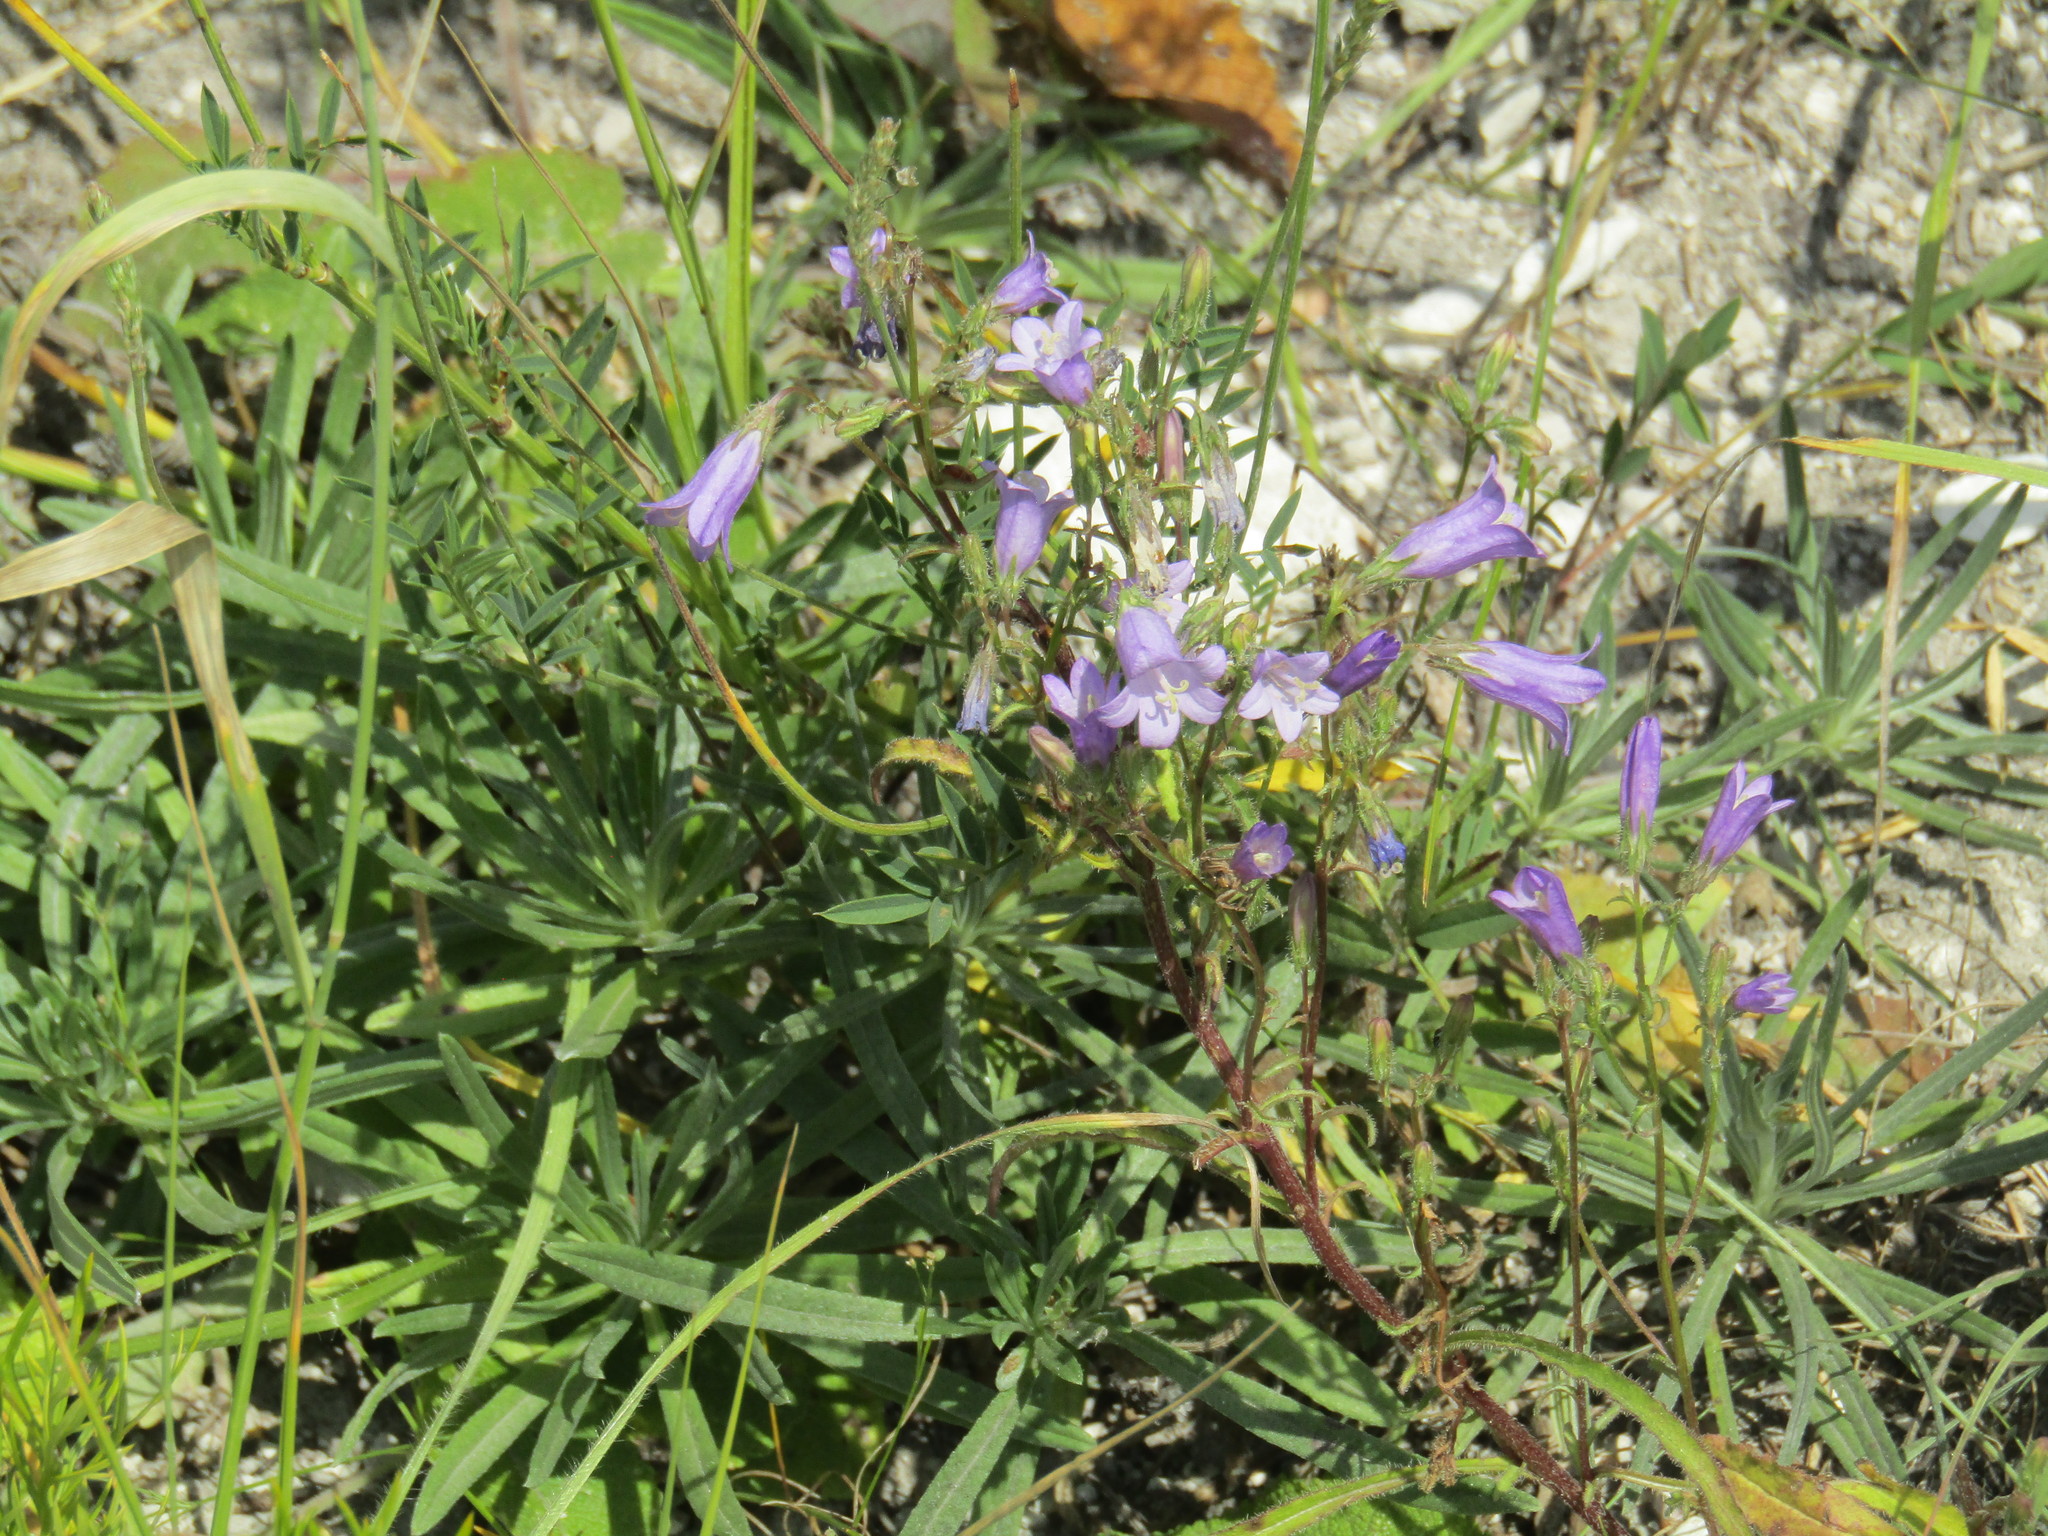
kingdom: Plantae
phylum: Tracheophyta
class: Magnoliopsida
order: Asterales
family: Campanulaceae
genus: Campanula
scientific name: Campanula sibirica
